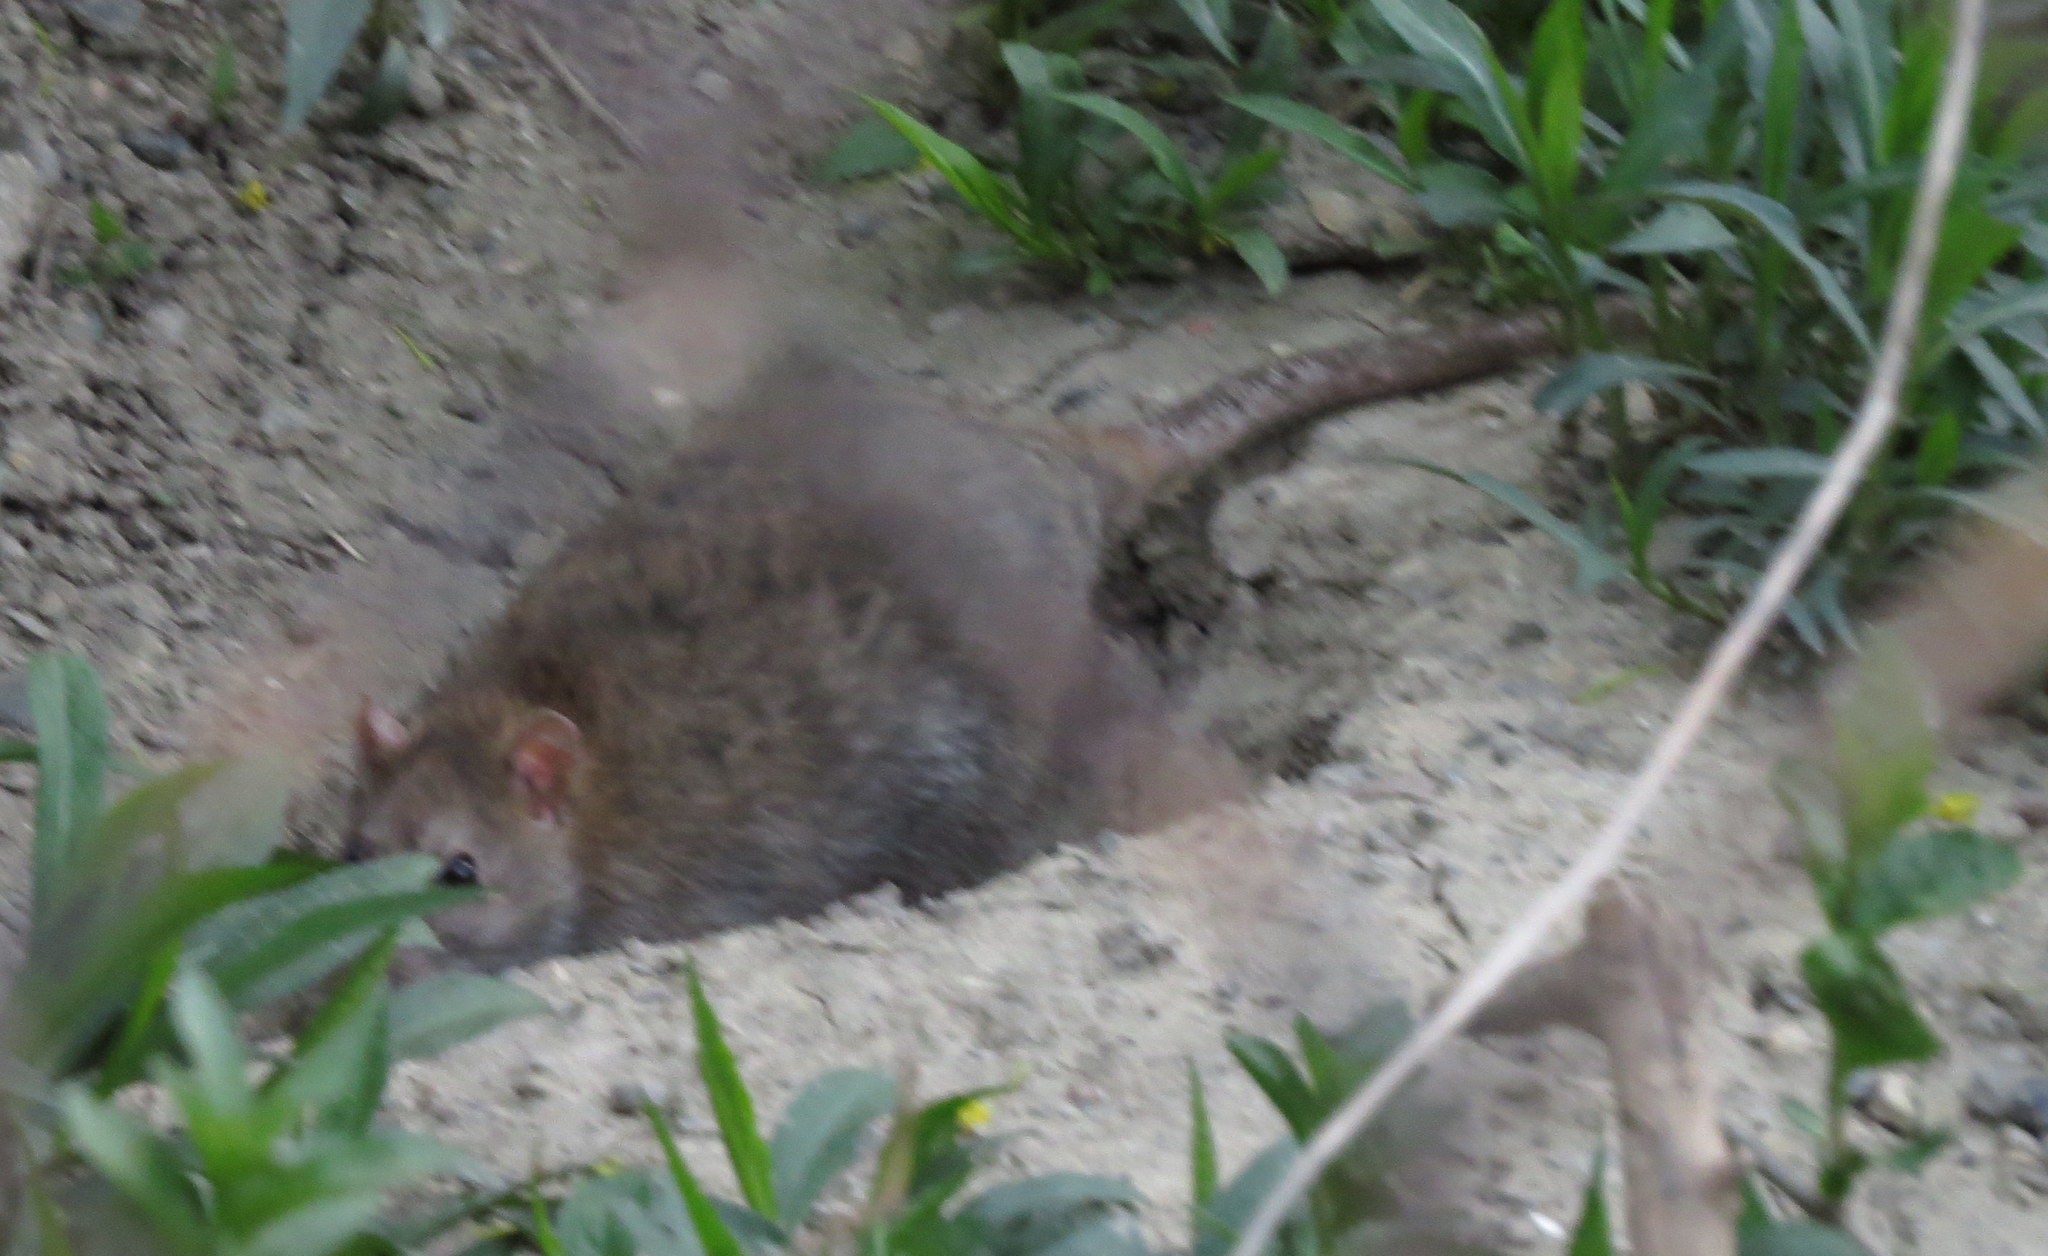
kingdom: Animalia
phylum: Chordata
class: Mammalia
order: Rodentia
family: Muridae
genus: Rattus
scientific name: Rattus norvegicus
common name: Brown rat
